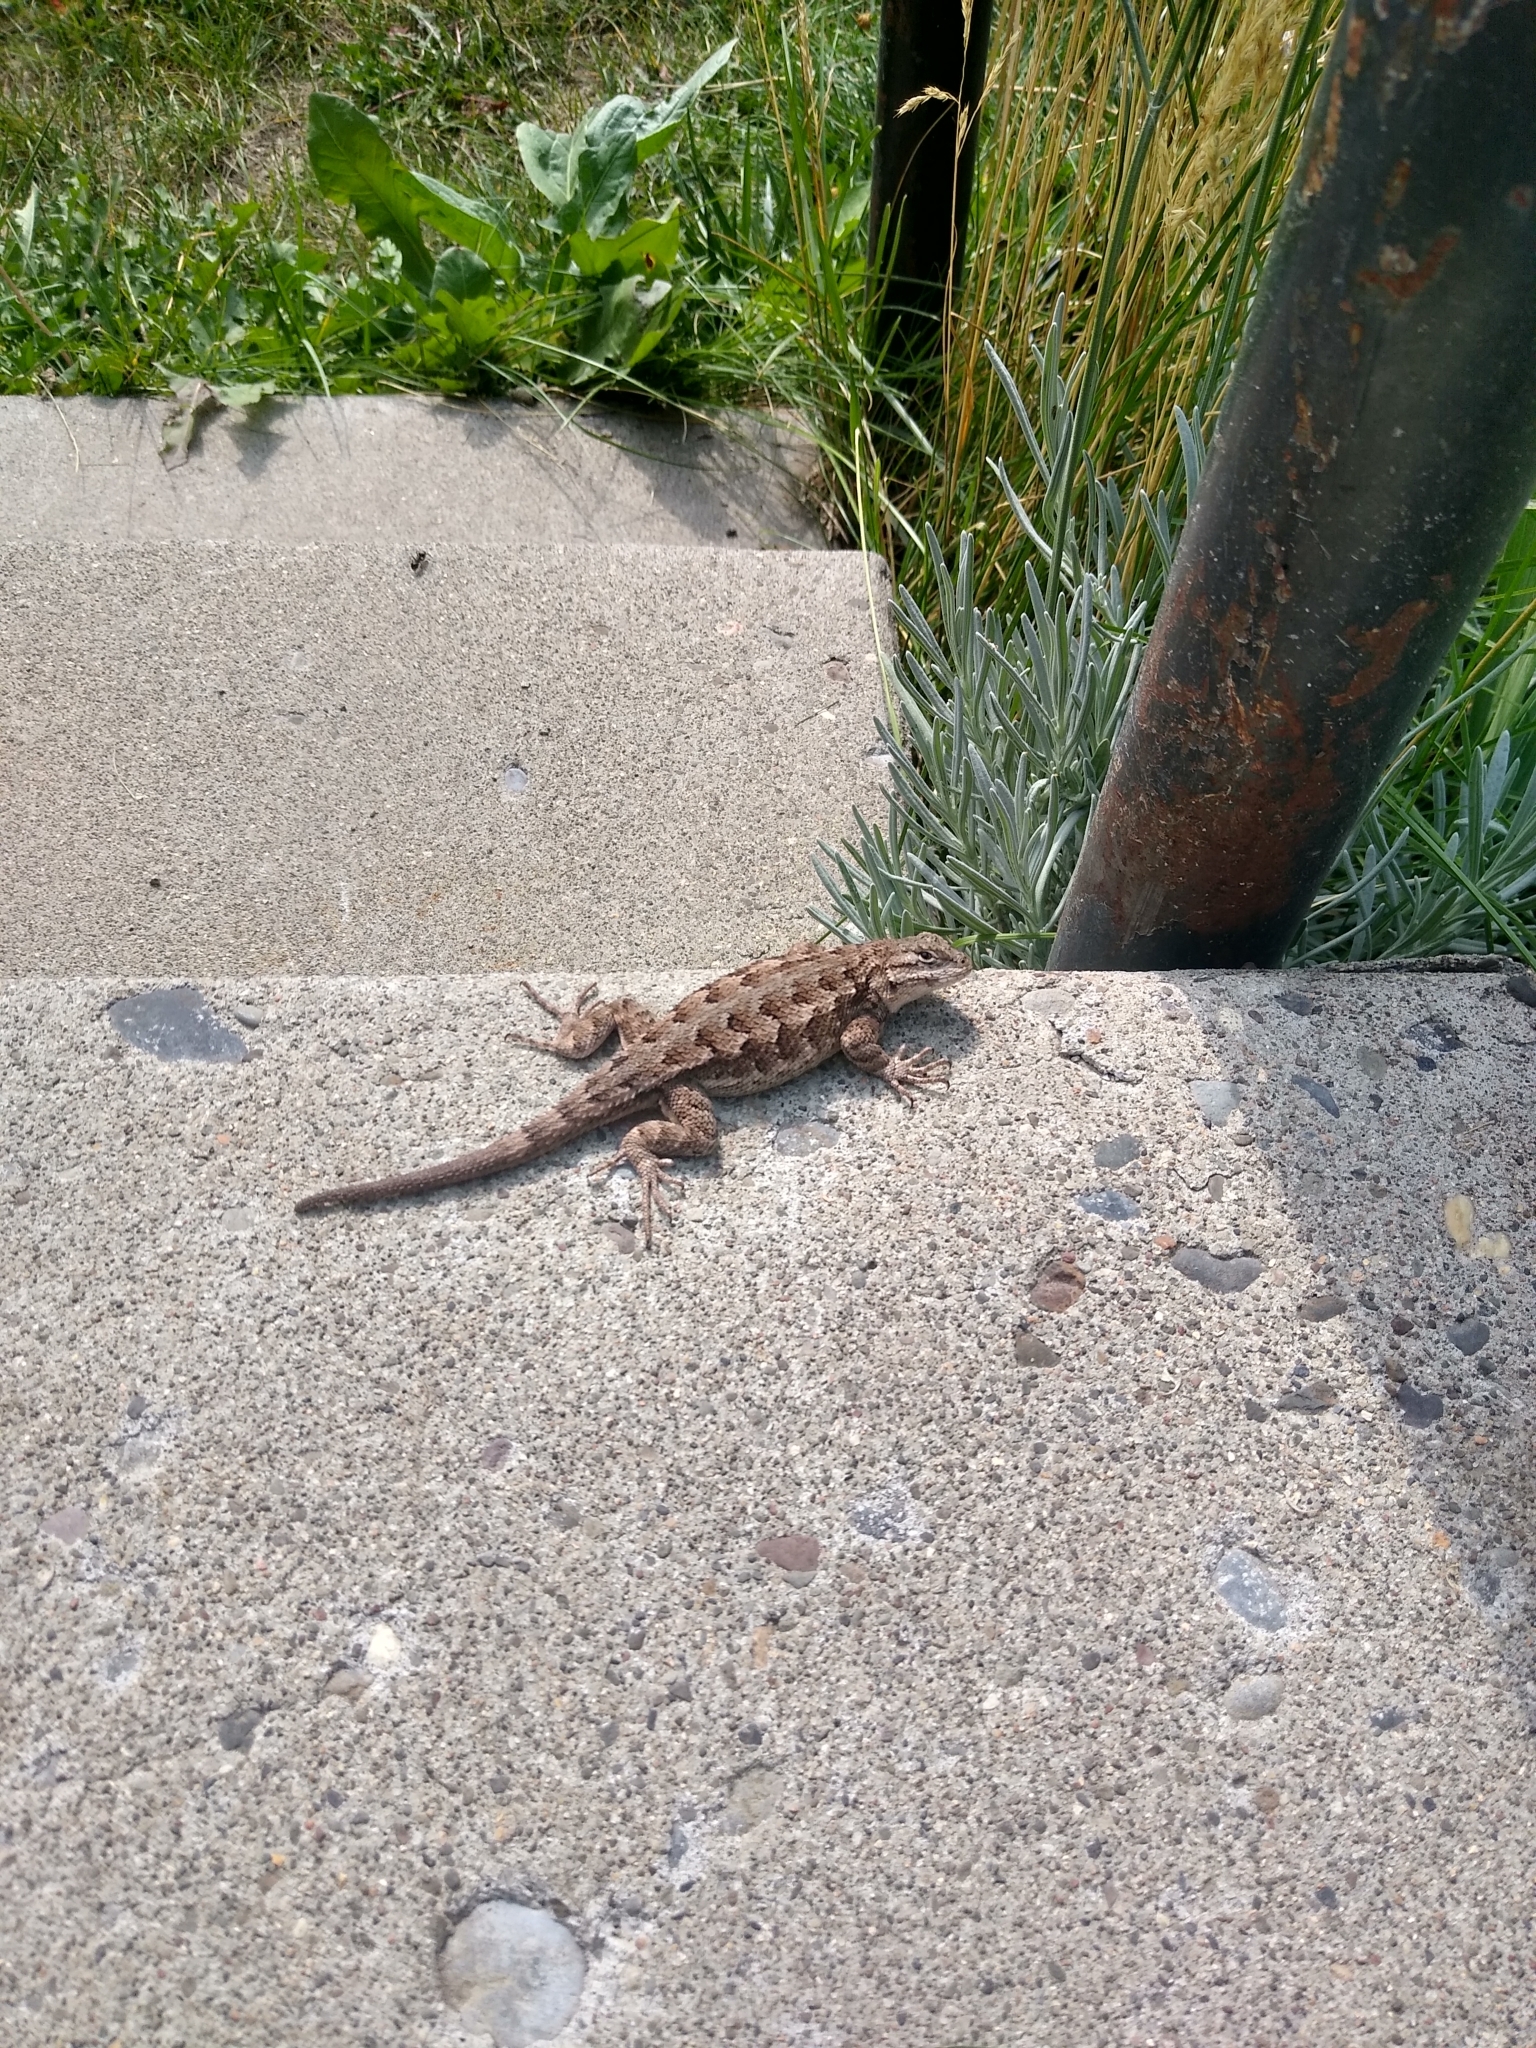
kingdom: Animalia
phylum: Chordata
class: Squamata
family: Phrynosomatidae
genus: Sceloporus
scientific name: Sceloporus occidentalis
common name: Western fence lizard
